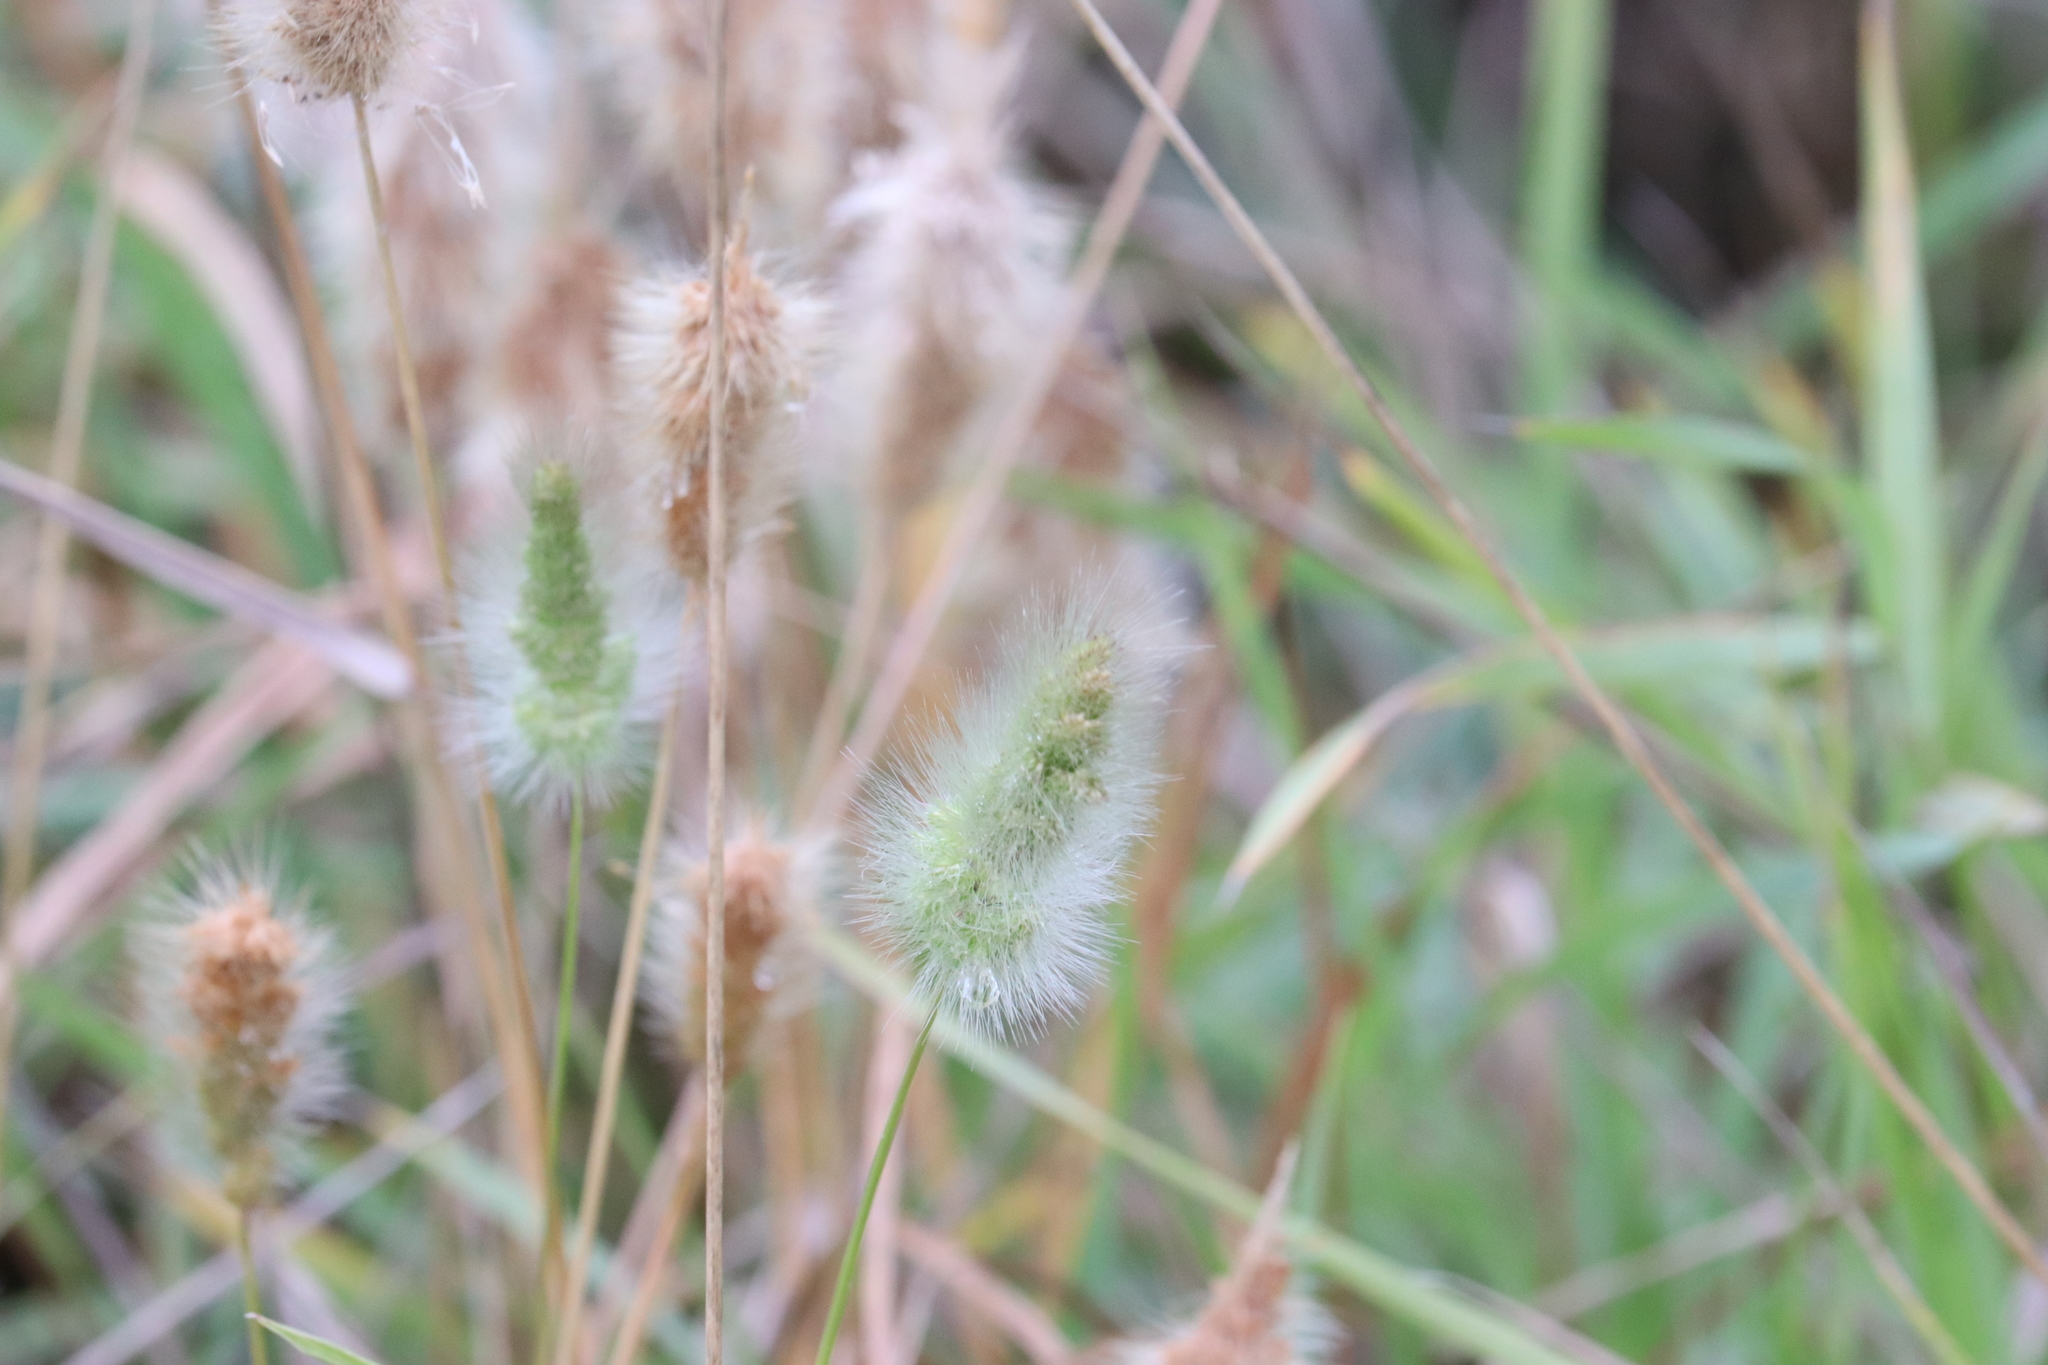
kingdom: Plantae
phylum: Tracheophyta
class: Liliopsida
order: Poales
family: Poaceae
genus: Polypogon
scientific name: Polypogon monspeliensis
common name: Annual rabbitsfoot grass
